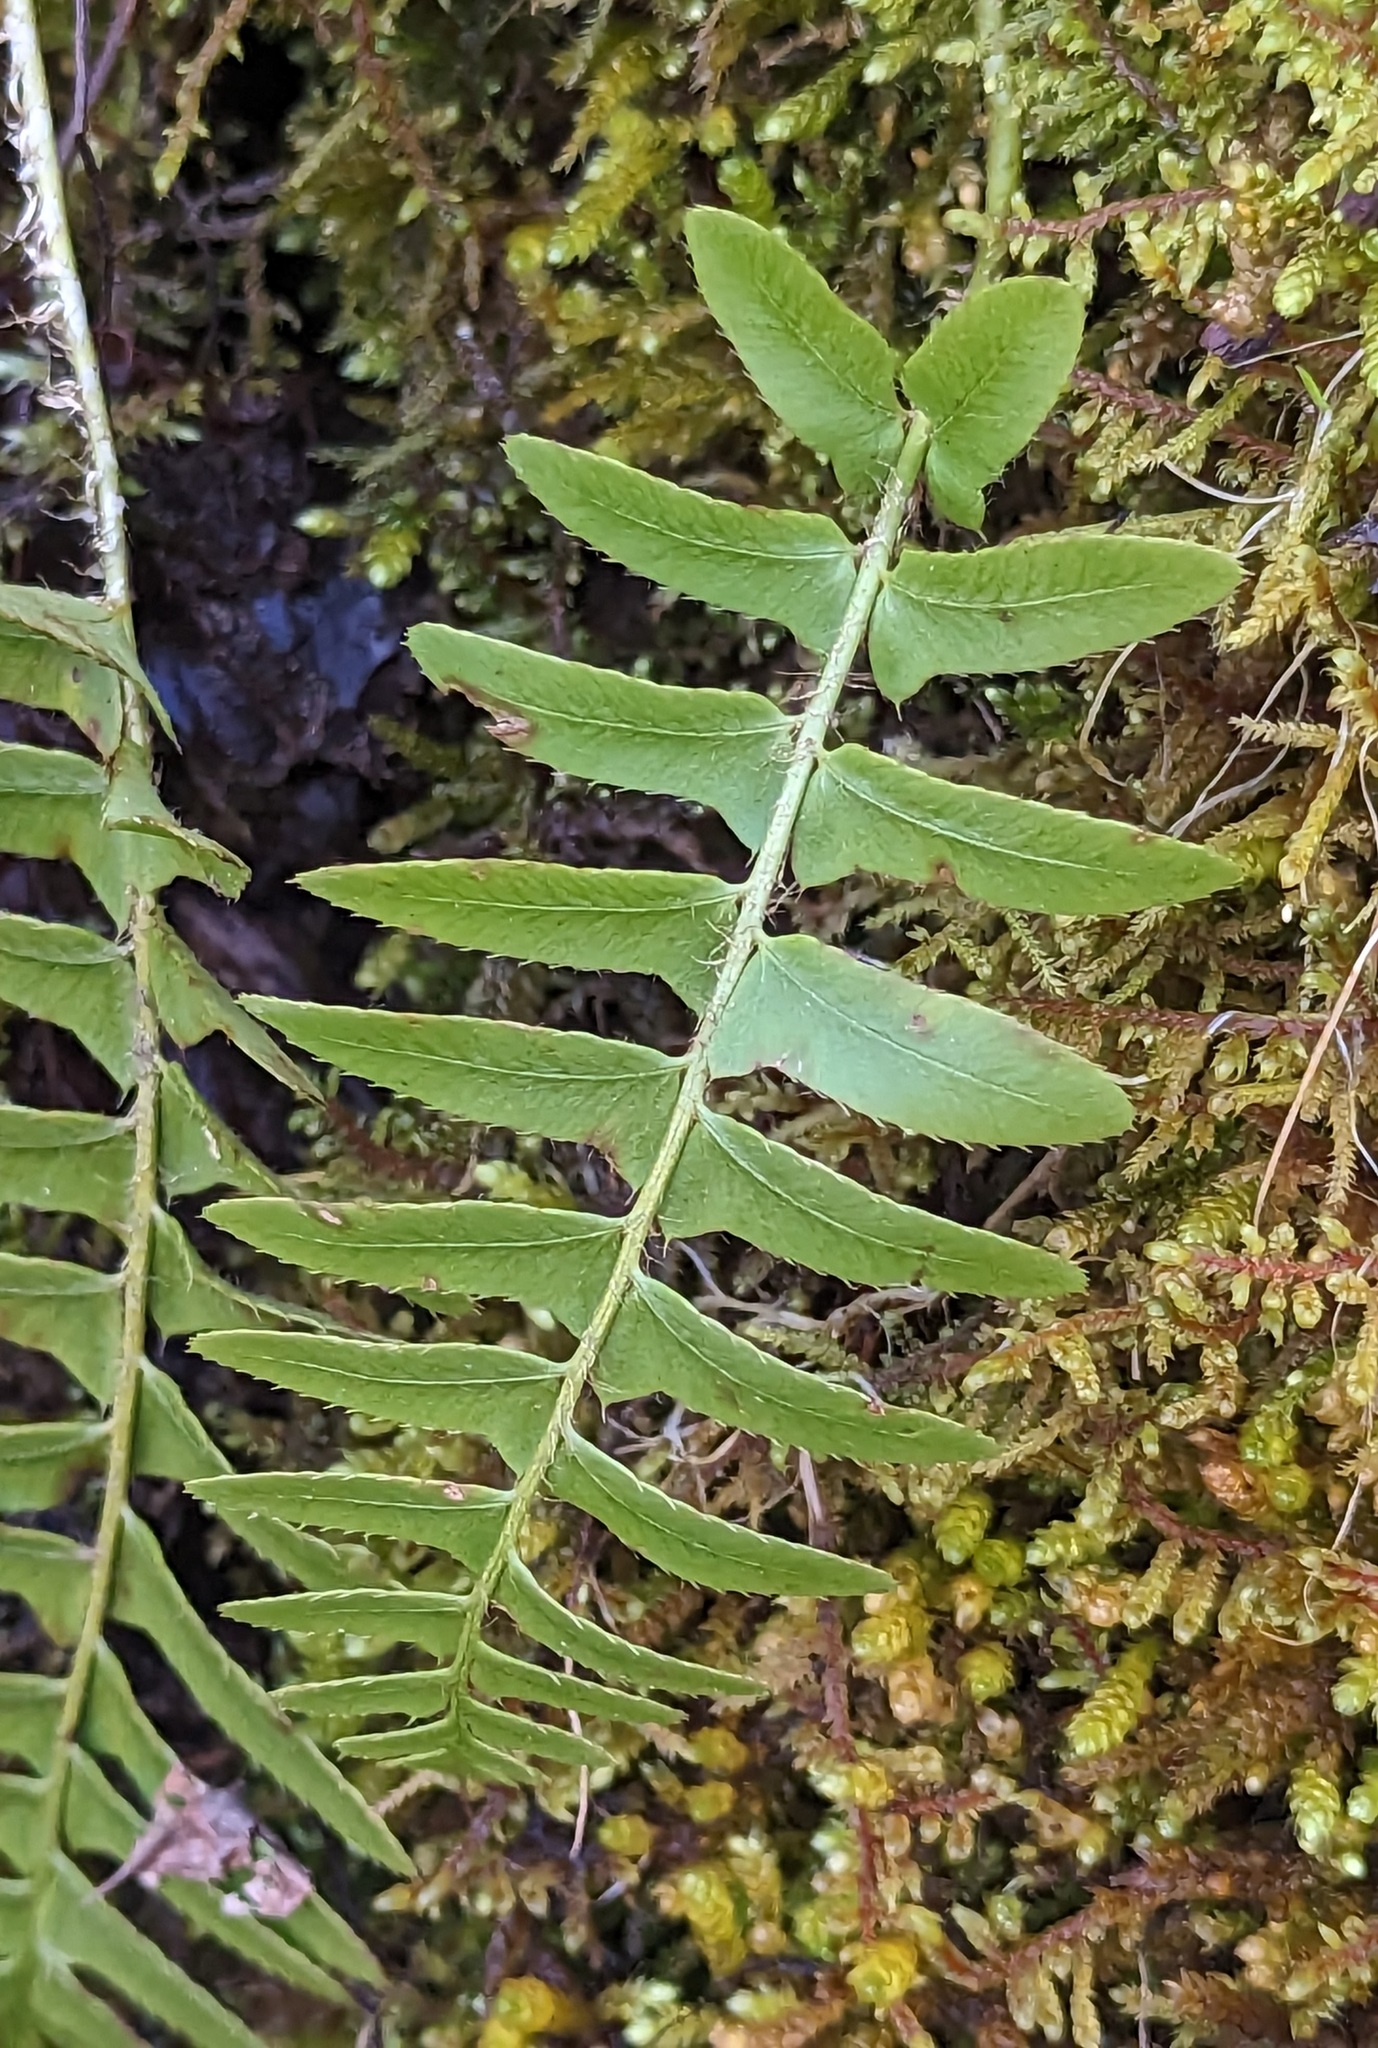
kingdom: Plantae
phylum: Tracheophyta
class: Polypodiopsida
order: Polypodiales
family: Dryopteridaceae
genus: Polystichum
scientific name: Polystichum acrostichoides
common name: Christmas fern
